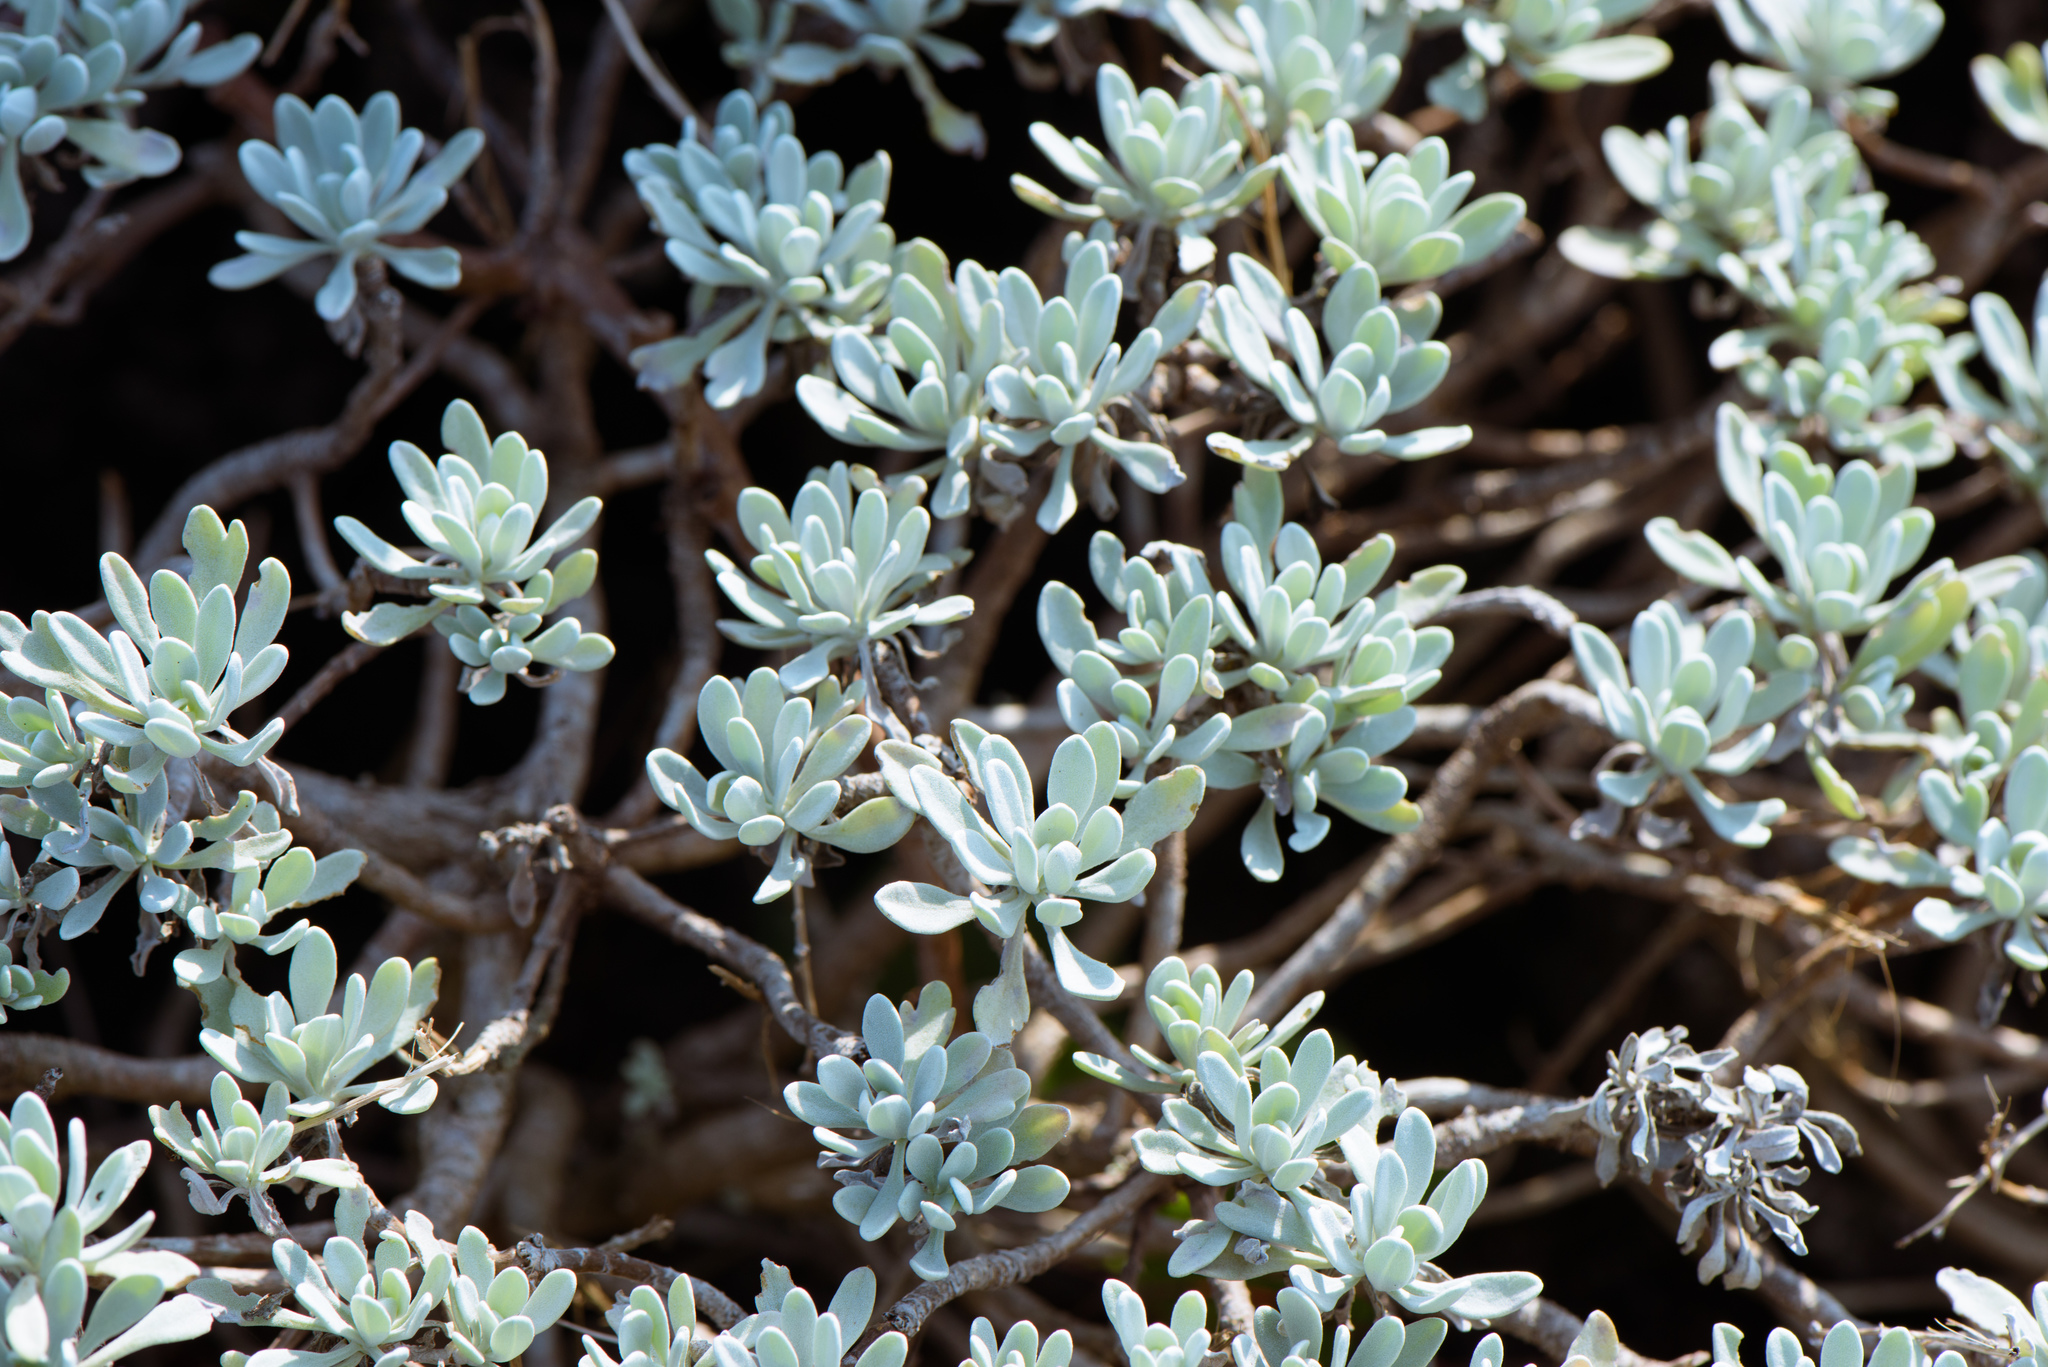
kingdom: Plantae
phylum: Tracheophyta
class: Magnoliopsida
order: Asterales
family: Asteraceae
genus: Crossostephium
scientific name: Crossostephium chinense
